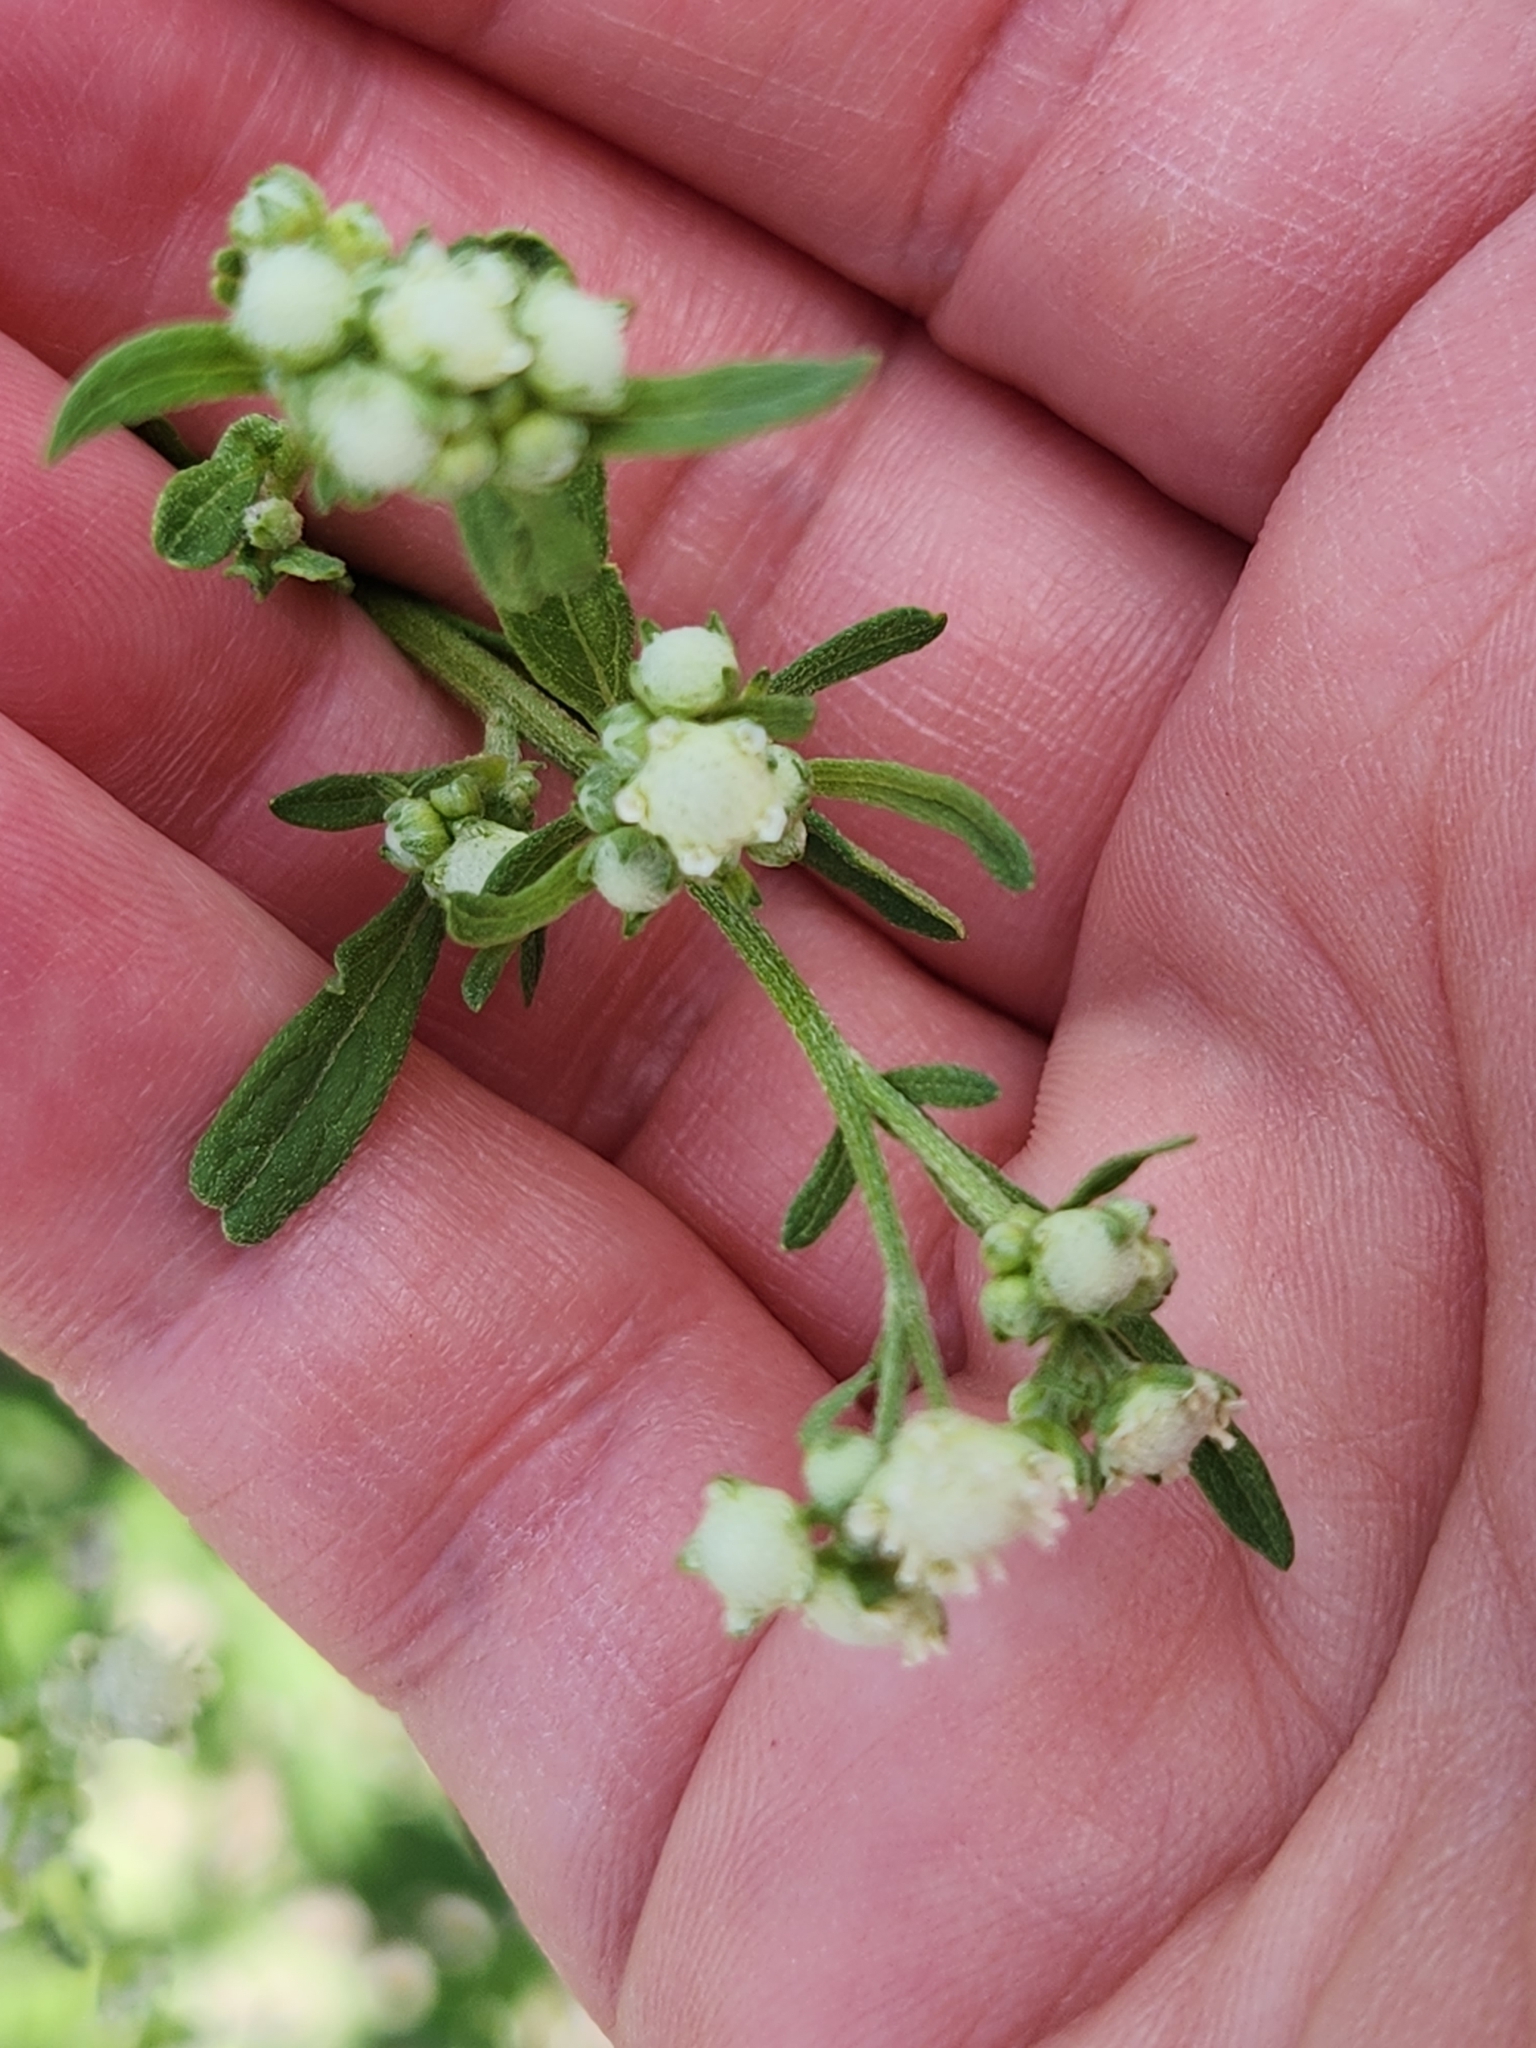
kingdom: Plantae
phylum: Tracheophyta
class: Magnoliopsida
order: Asterales
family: Asteraceae
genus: Parthenium
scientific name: Parthenium hysterophorus
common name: Santa maria feverfew
